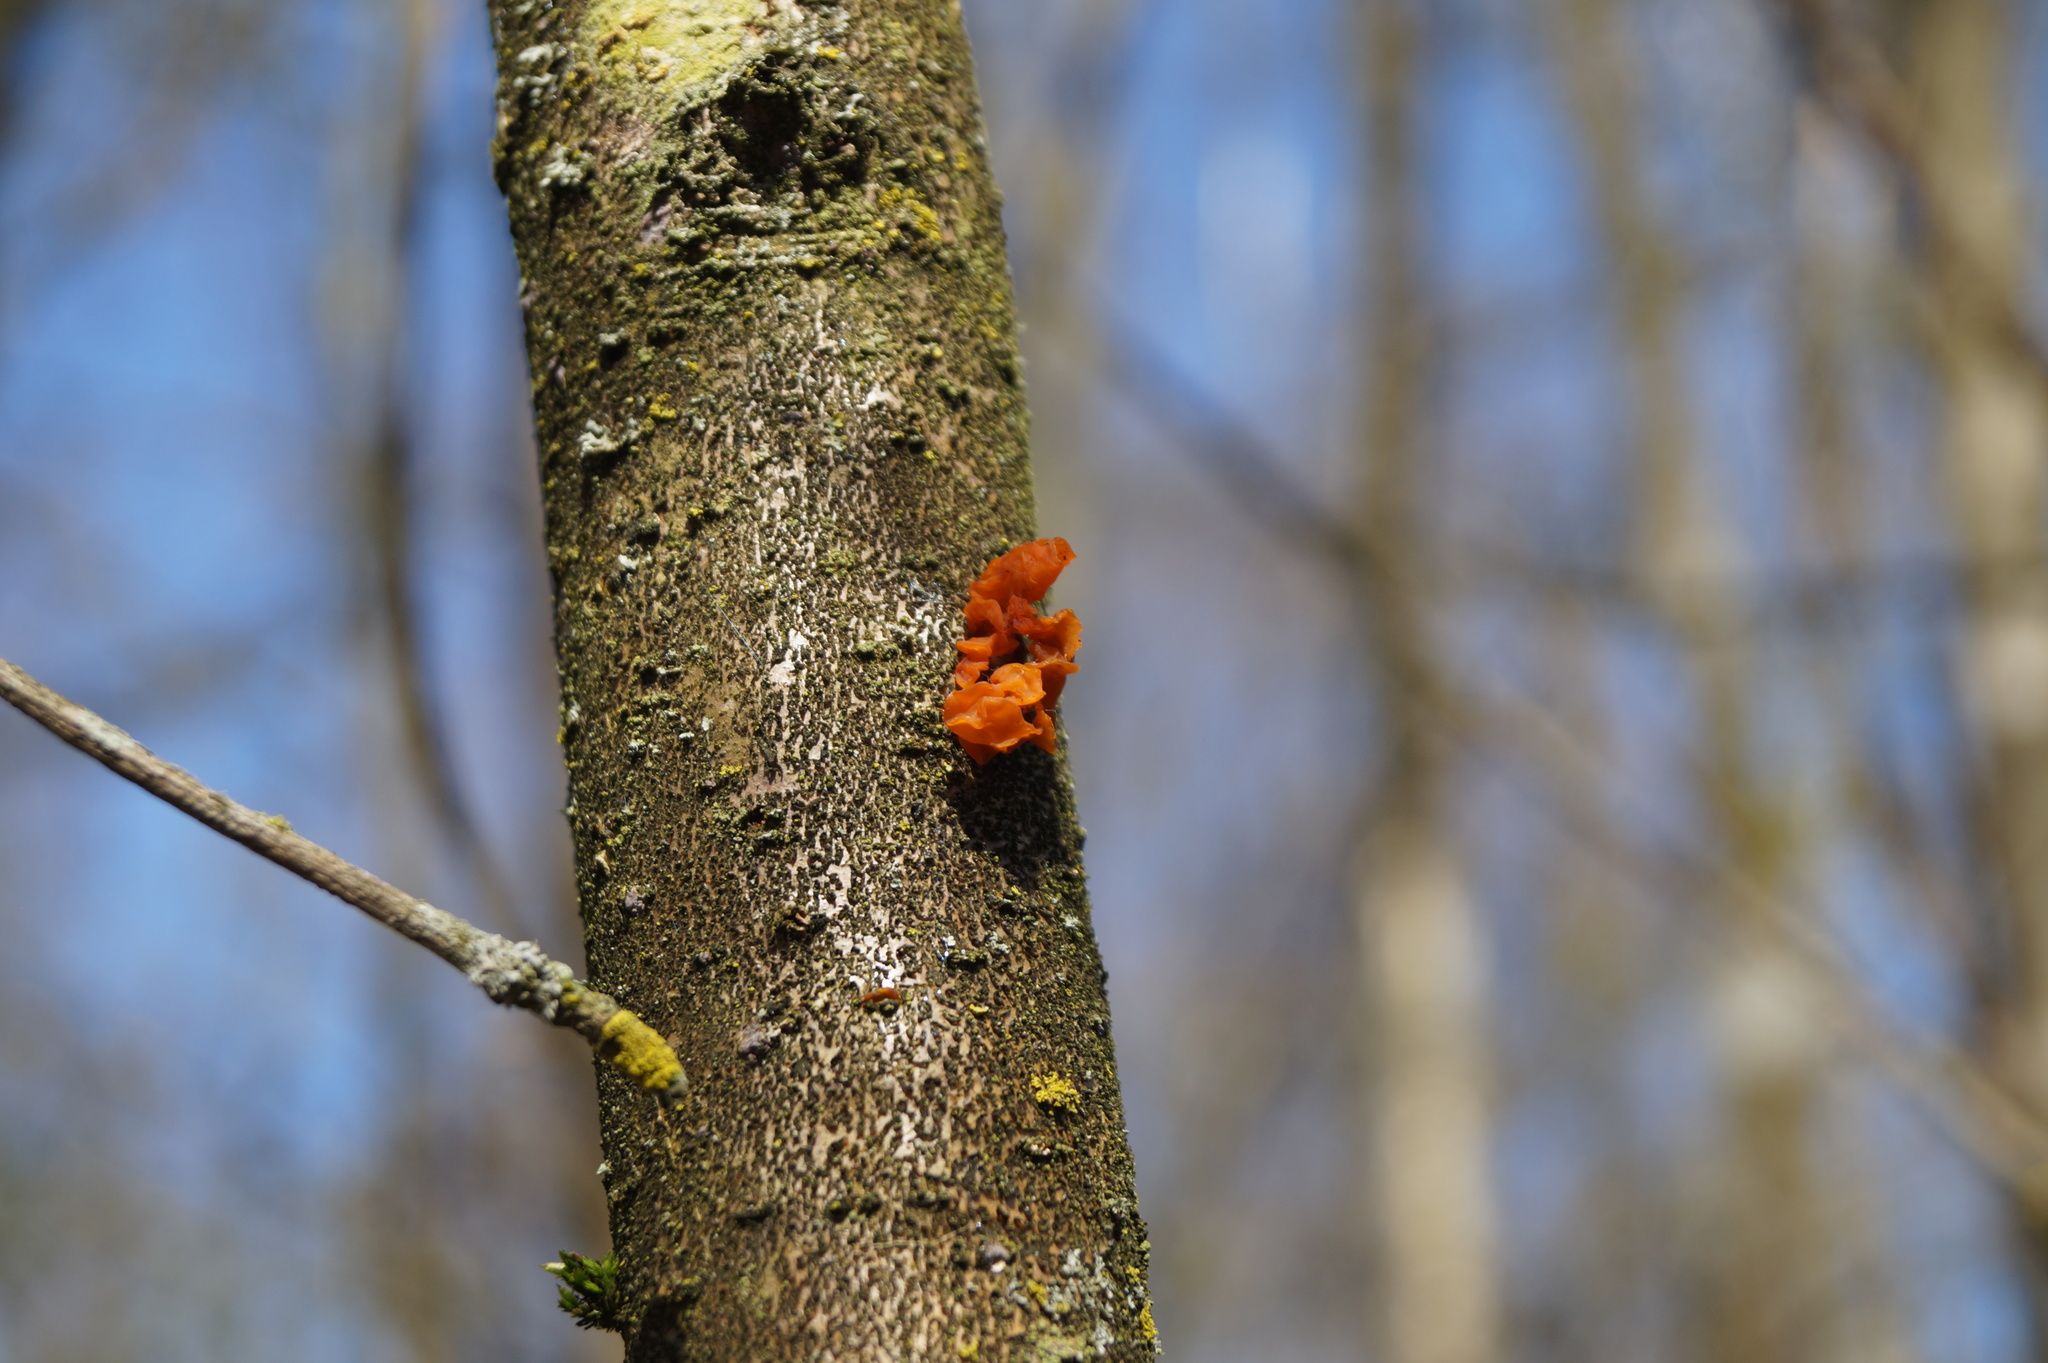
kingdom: Fungi
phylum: Basidiomycota
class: Tremellomycetes
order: Tremellales
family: Tremellaceae
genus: Tremella
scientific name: Tremella mesenterica
